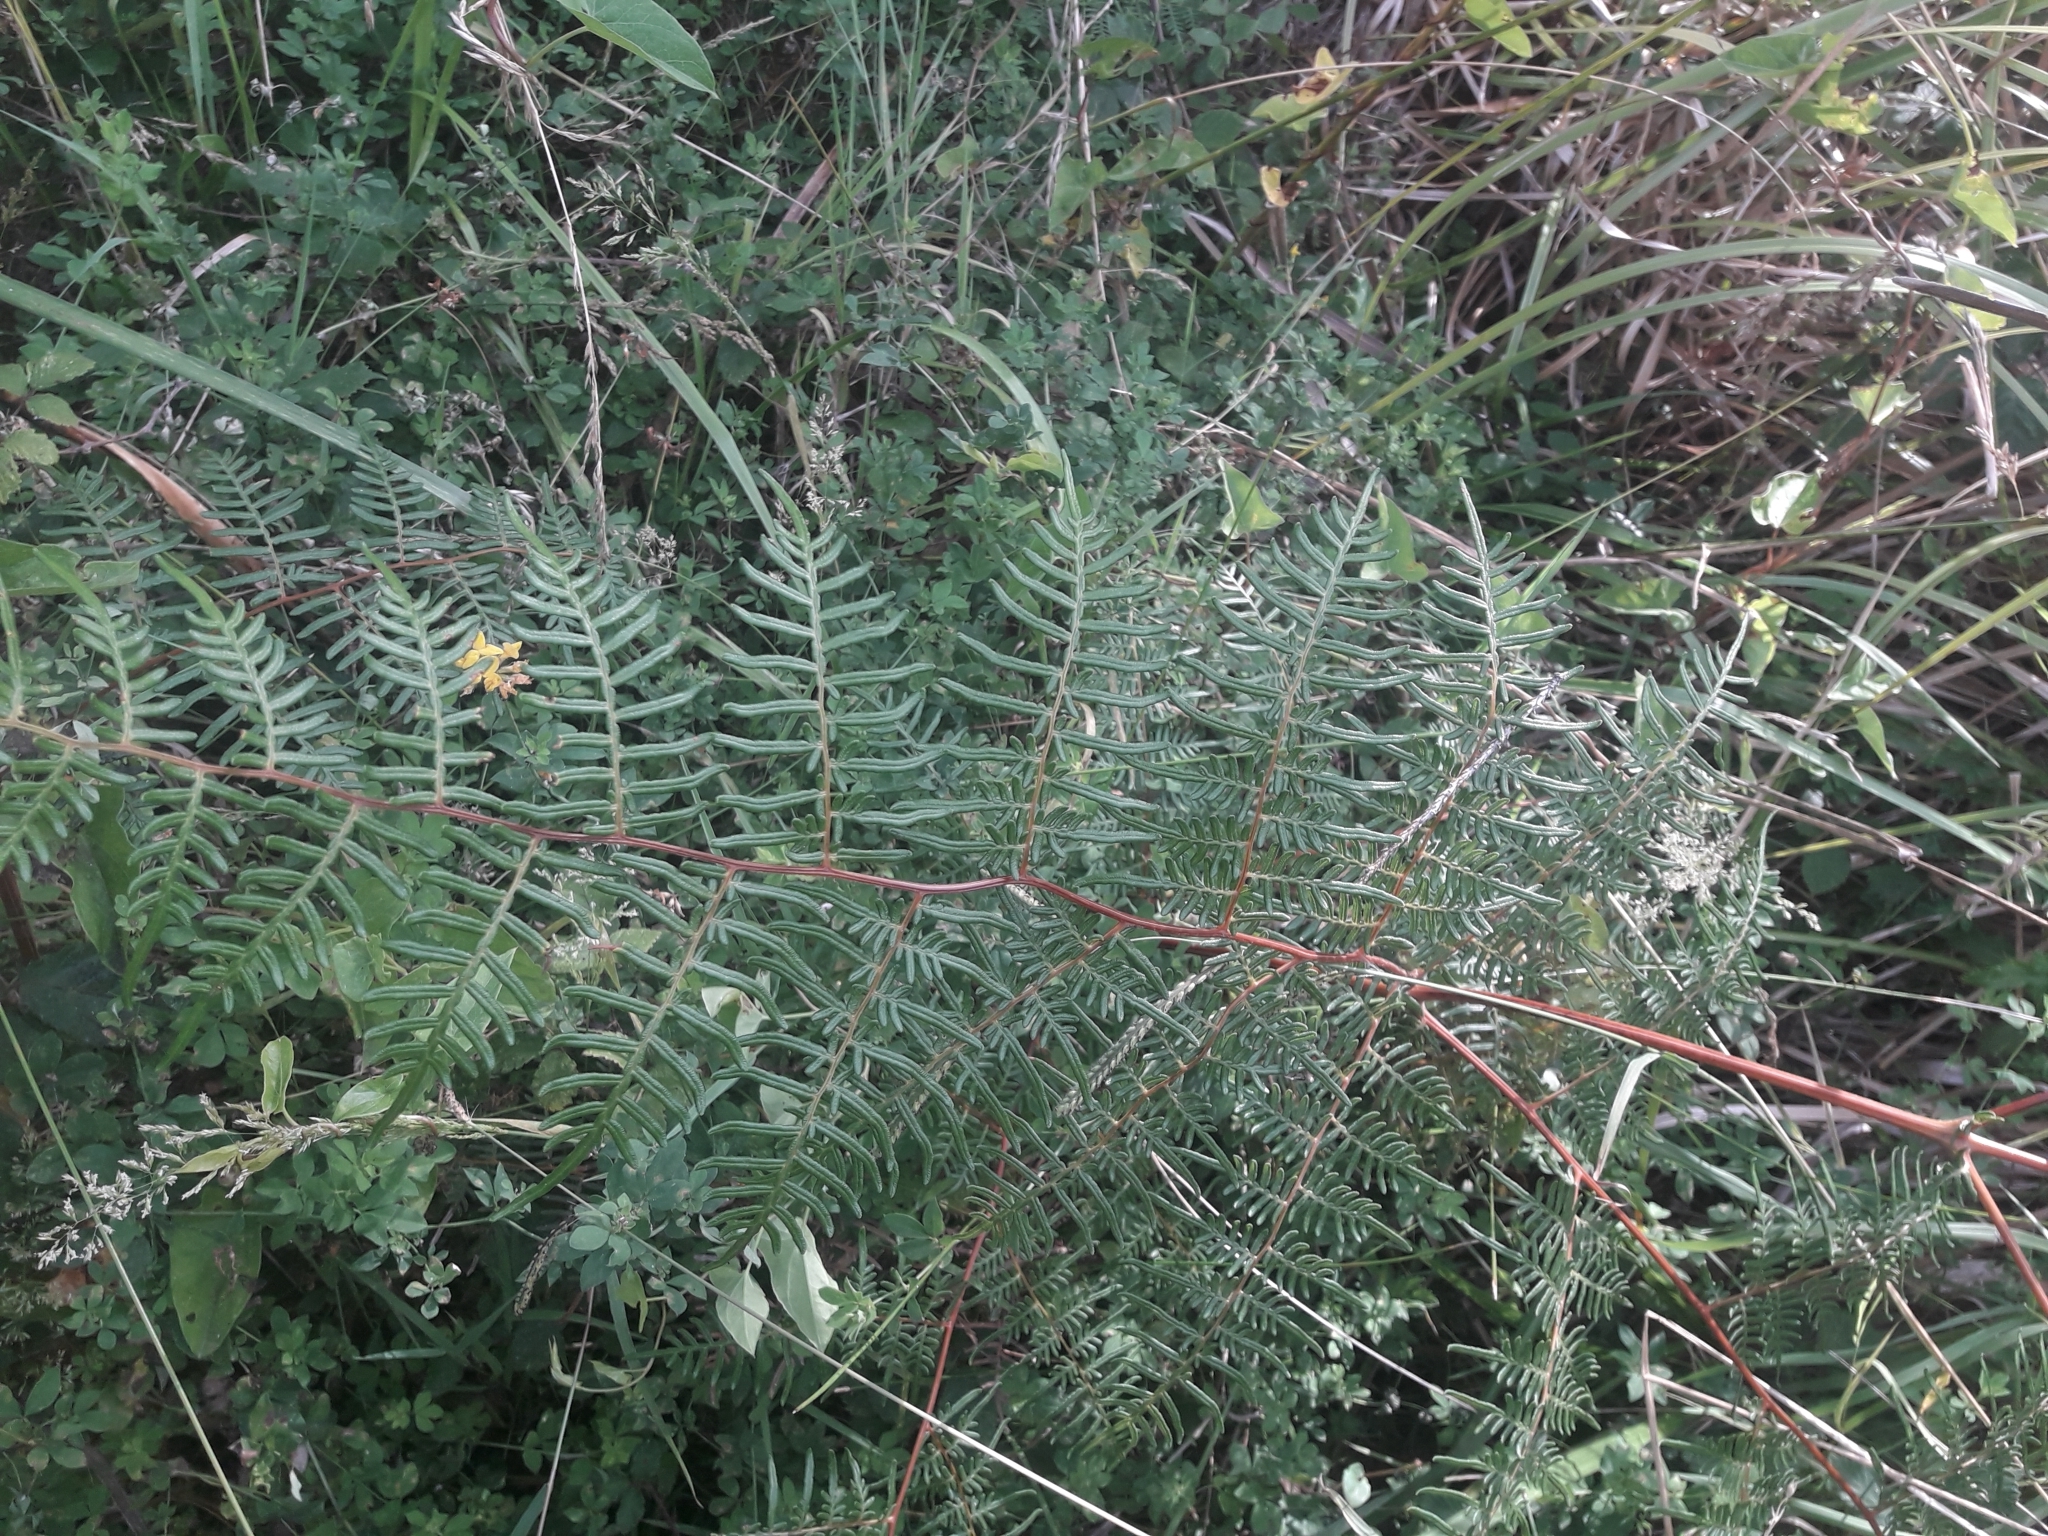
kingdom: Plantae
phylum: Tracheophyta
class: Polypodiopsida
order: Polypodiales
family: Dennstaedtiaceae
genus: Pteridium
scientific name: Pteridium esculentum
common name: Bracken fern
